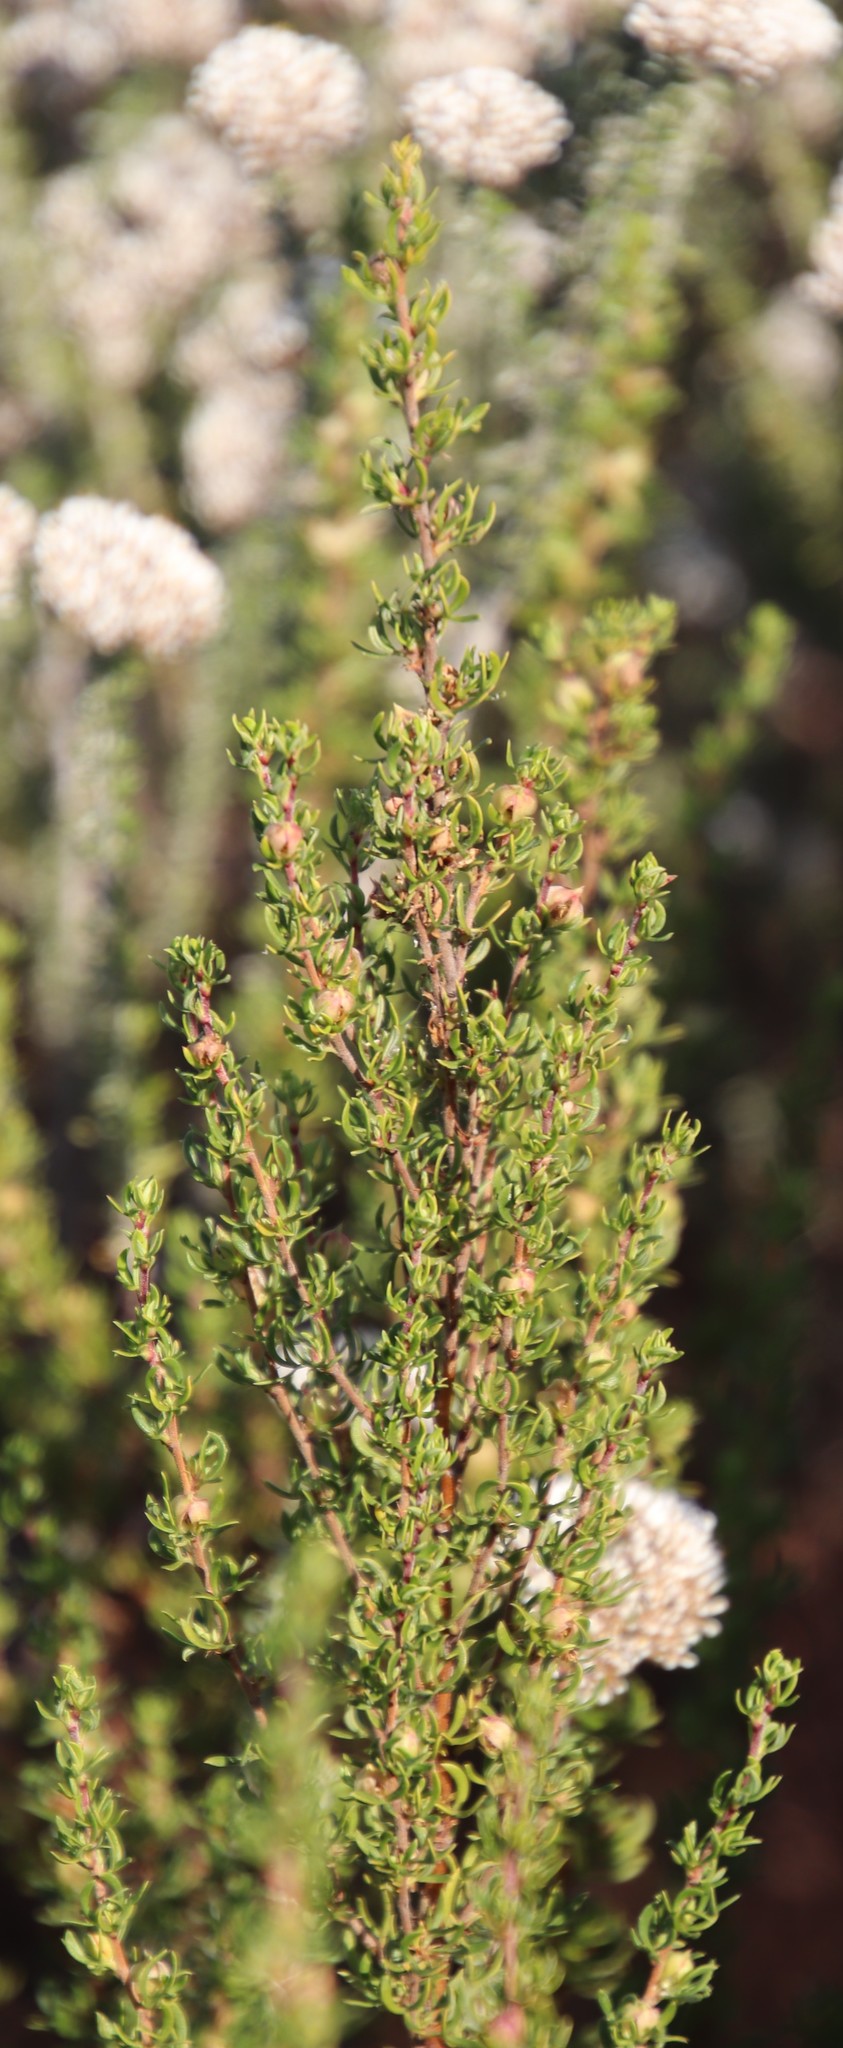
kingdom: Plantae
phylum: Tracheophyta
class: Magnoliopsida
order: Rosales
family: Rosaceae
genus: Cliffortia
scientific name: Cliffortia falcata
